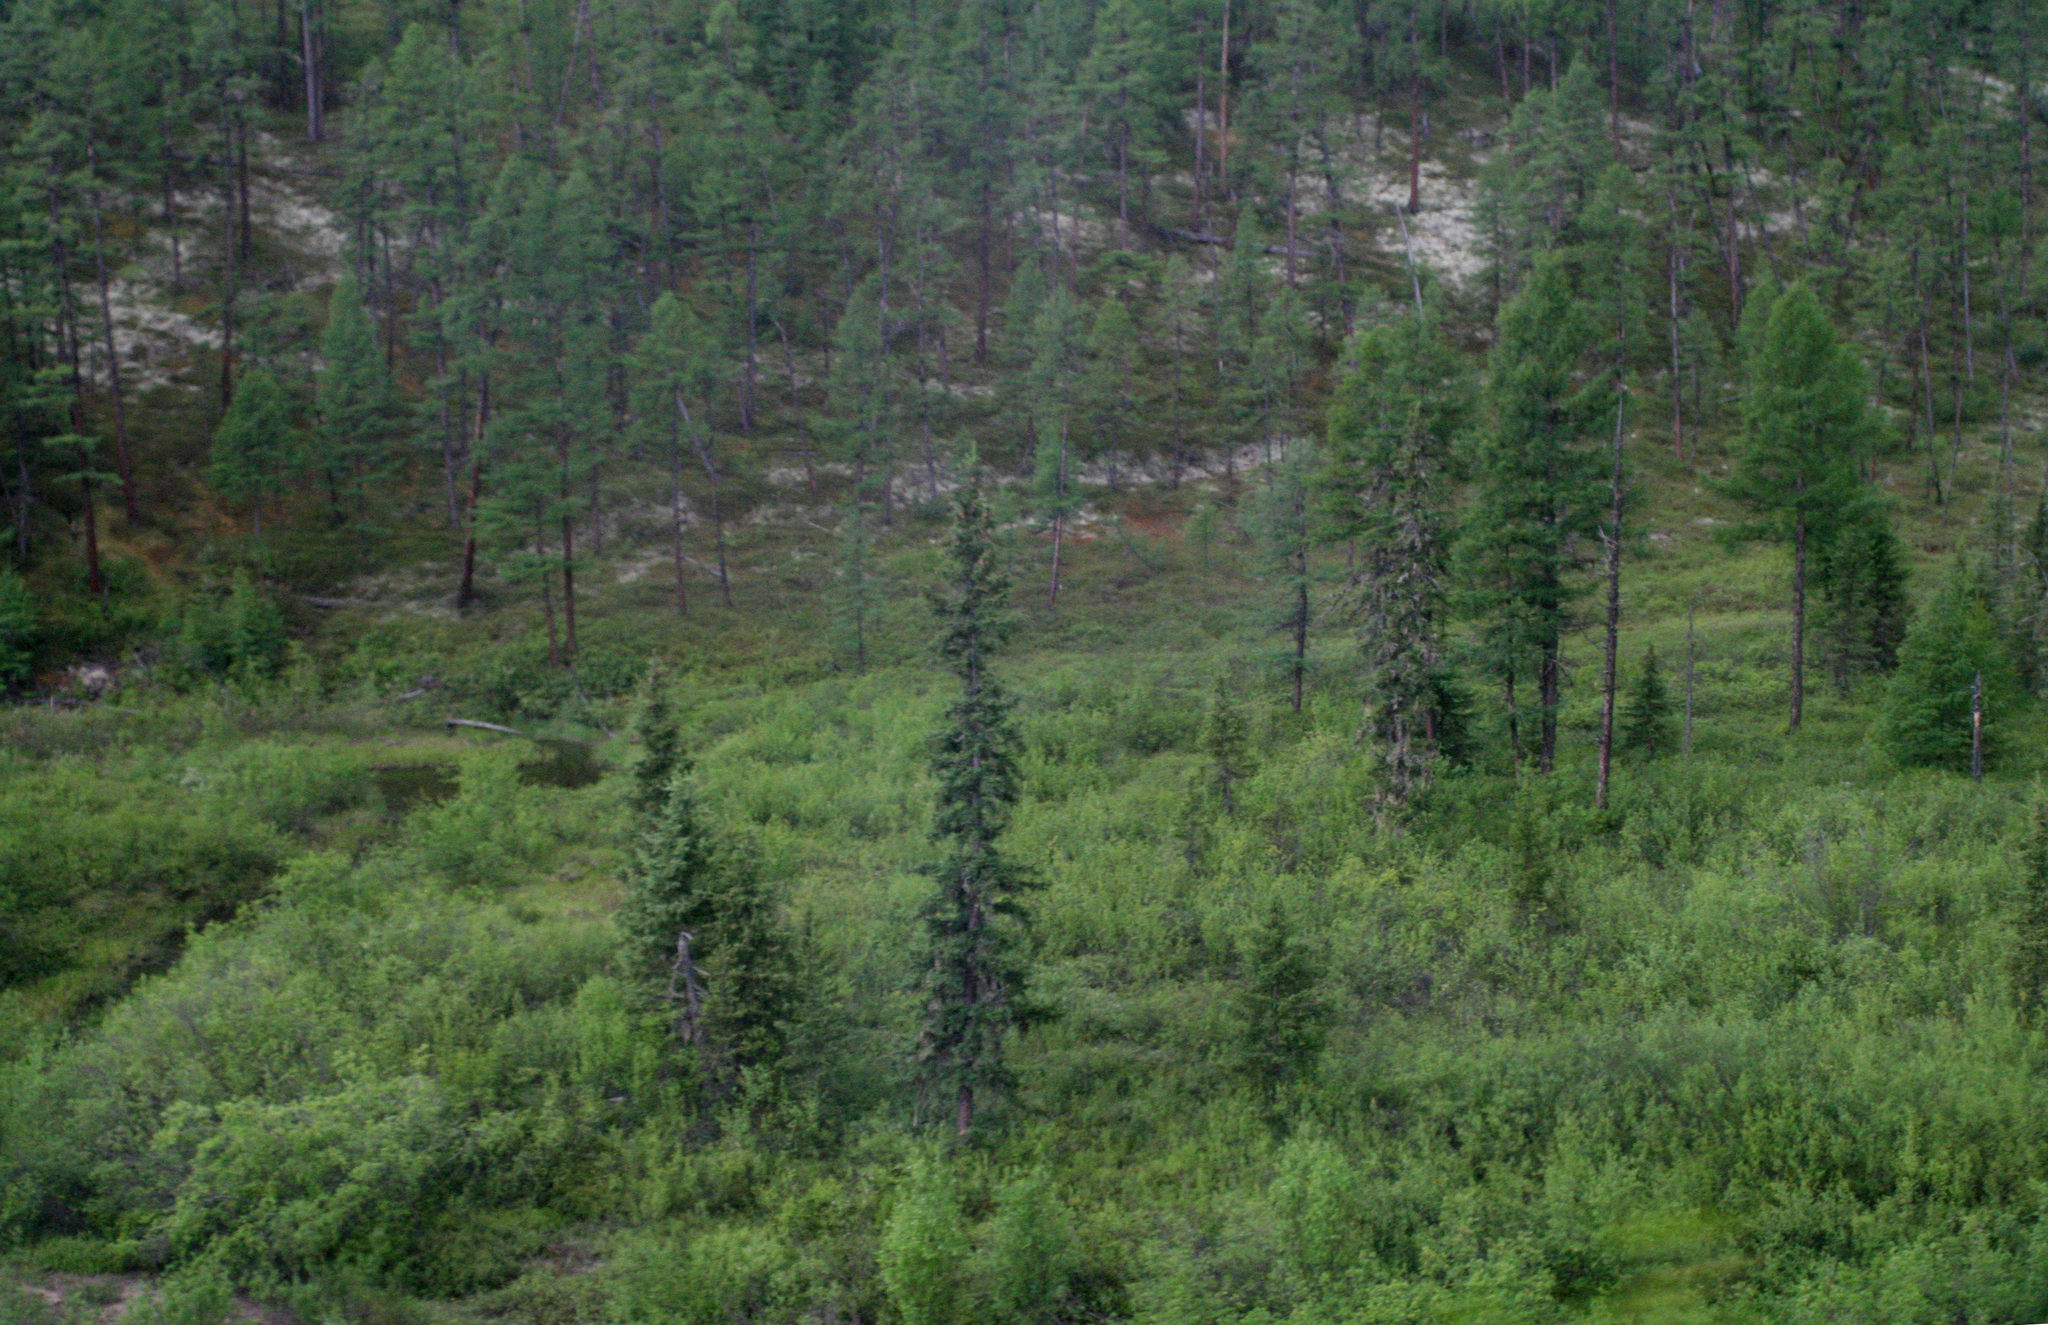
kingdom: Plantae
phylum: Tracheophyta
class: Pinopsida
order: Pinales
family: Pinaceae
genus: Picea
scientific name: Picea obovata
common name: Siberian spruce
